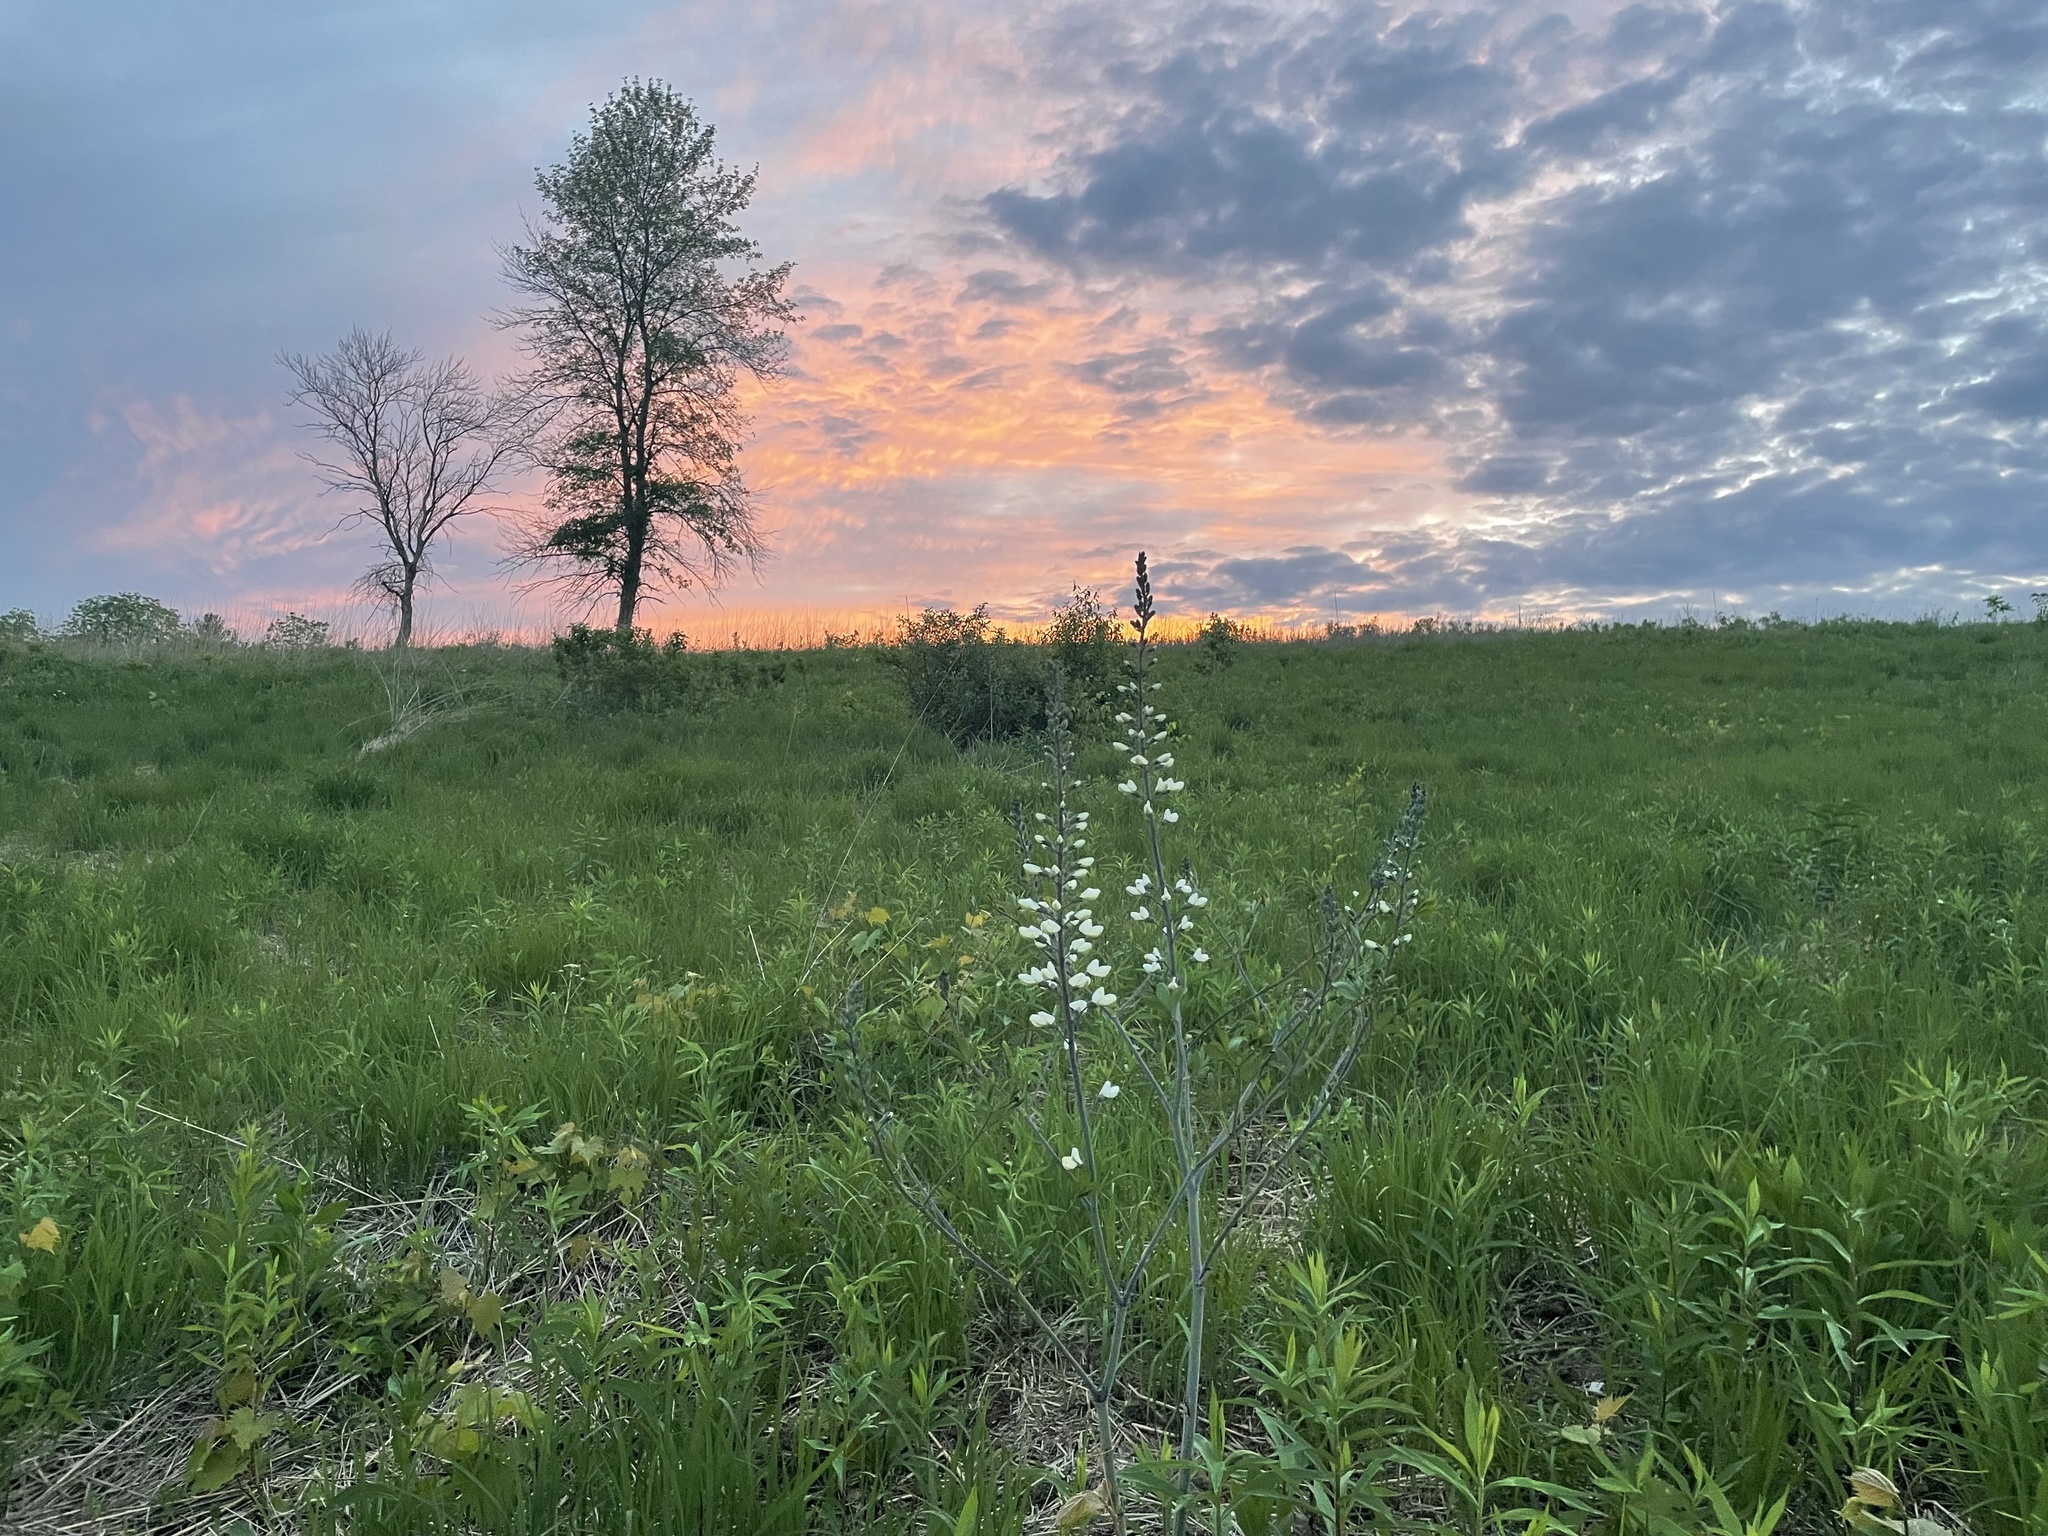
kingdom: Plantae
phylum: Tracheophyta
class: Magnoliopsida
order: Fabales
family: Fabaceae
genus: Baptisia
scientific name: Baptisia alba
